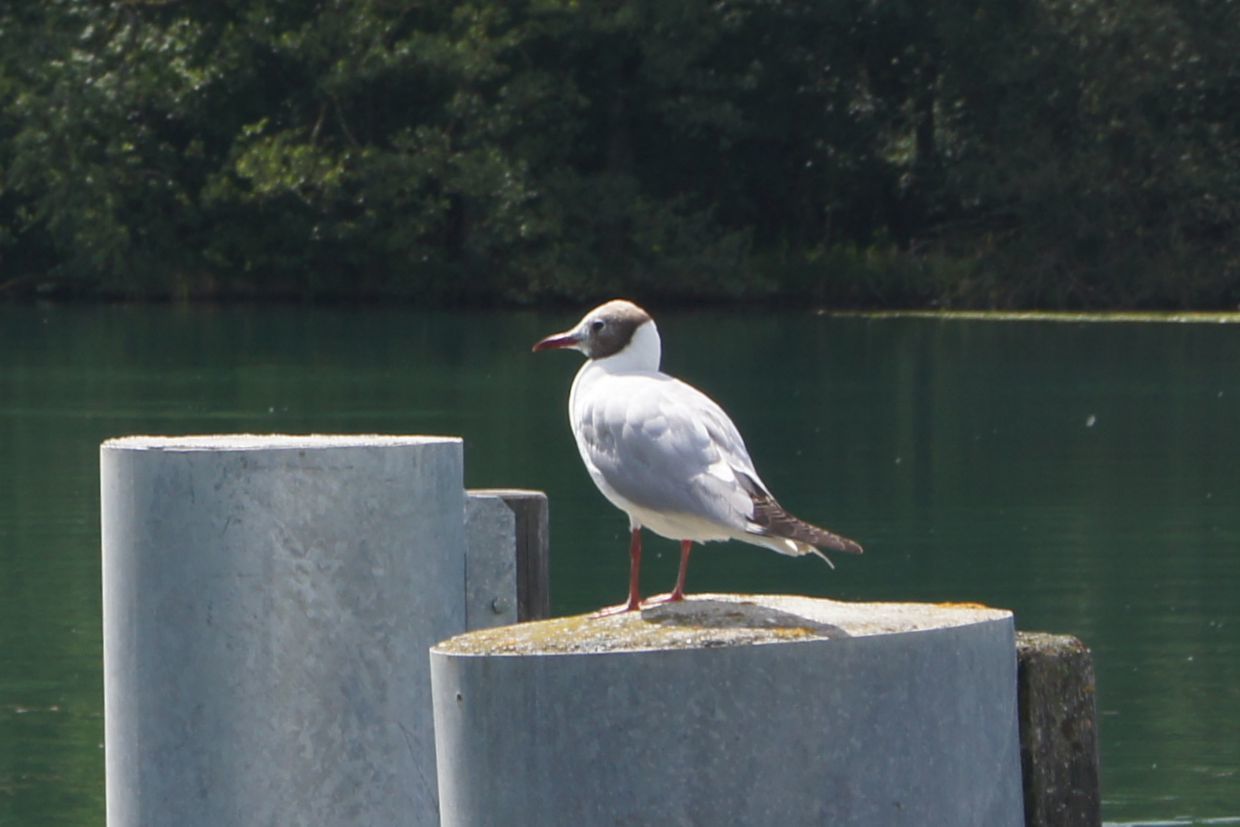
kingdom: Animalia
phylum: Chordata
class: Aves
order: Charadriiformes
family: Laridae
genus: Chroicocephalus
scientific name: Chroicocephalus ridibundus
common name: Black-headed gull
